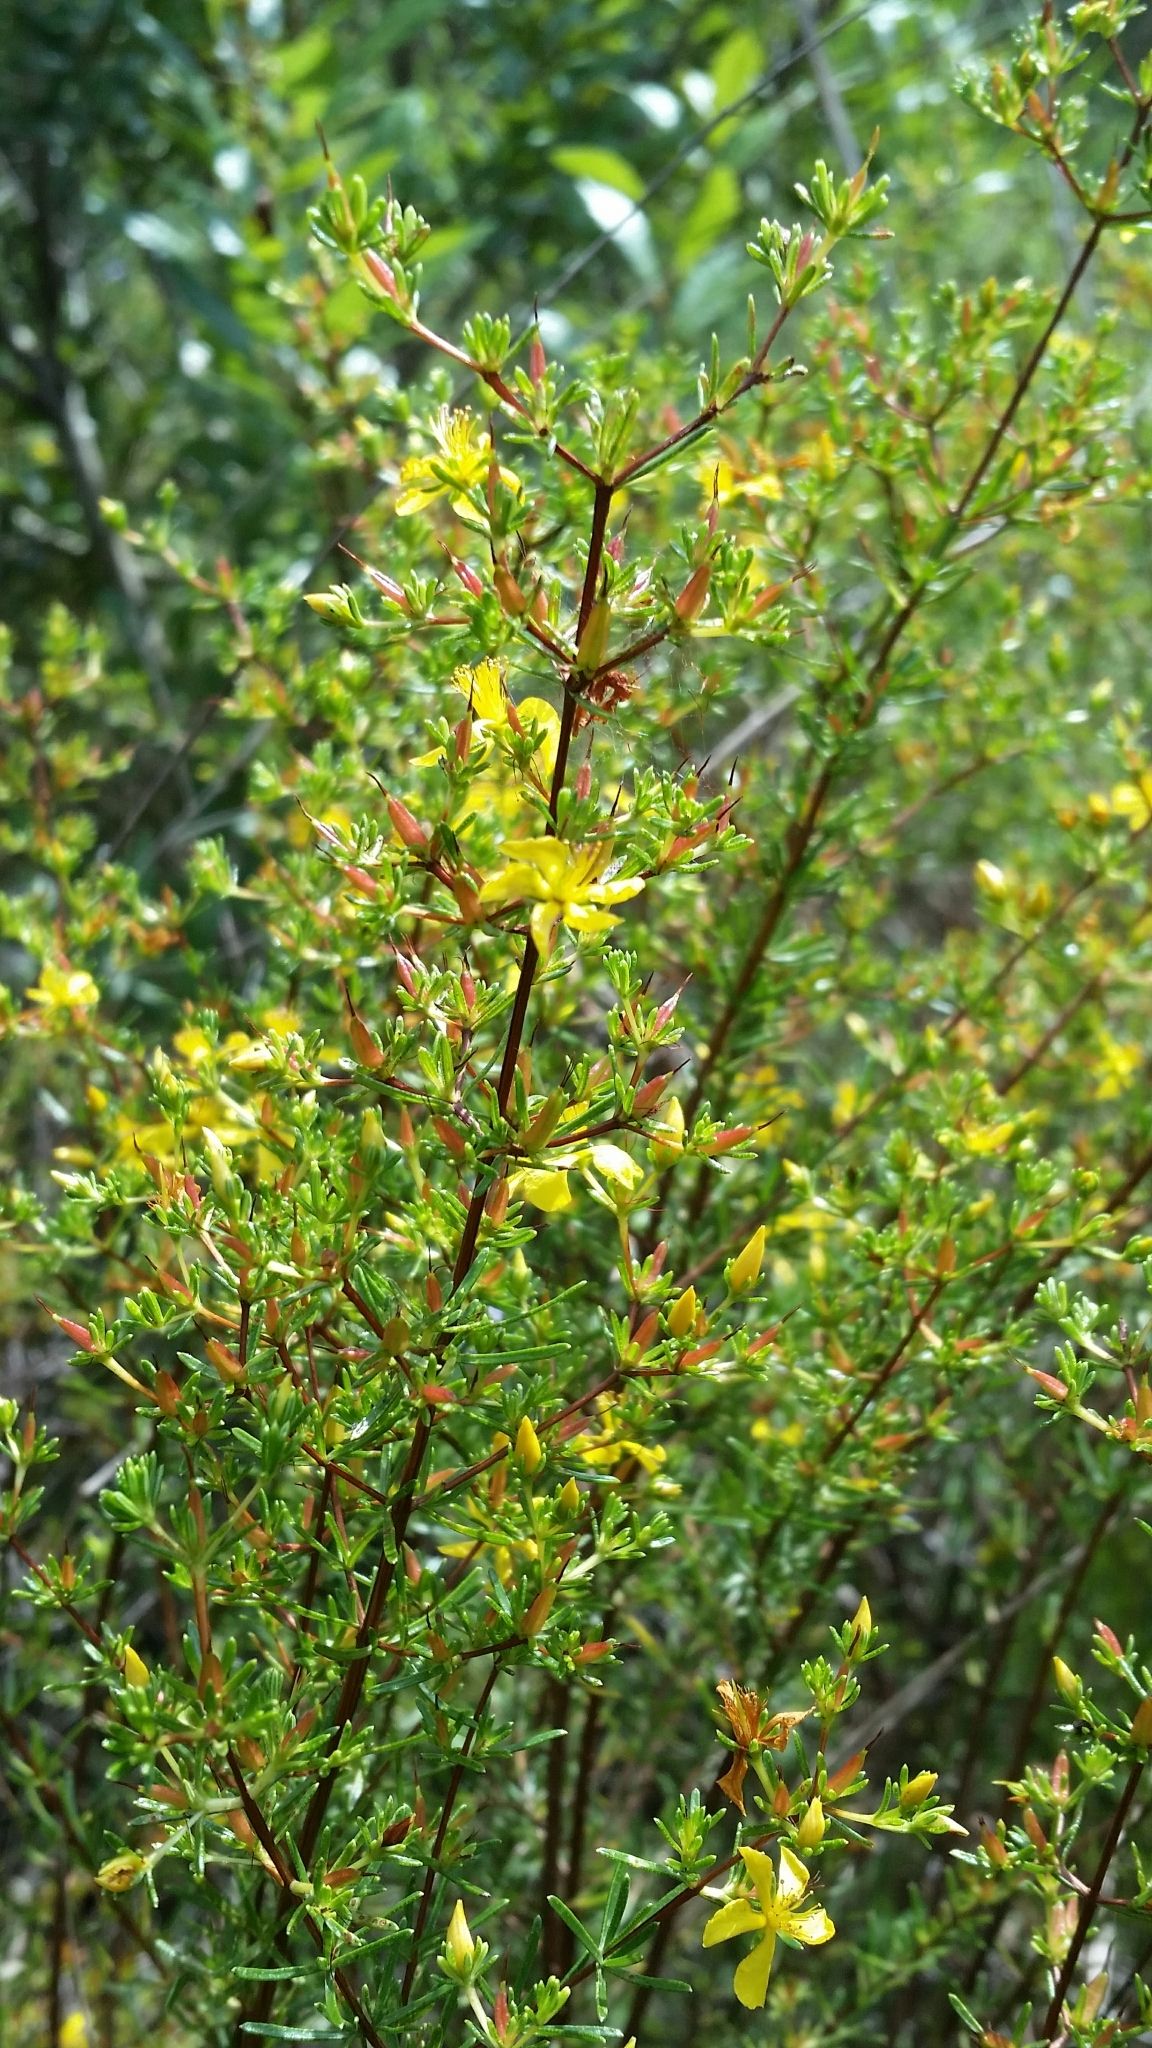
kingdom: Plantae
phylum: Tracheophyta
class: Magnoliopsida
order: Malpighiales
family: Hypericaceae
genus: Hypericum
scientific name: Hypericum limosum
